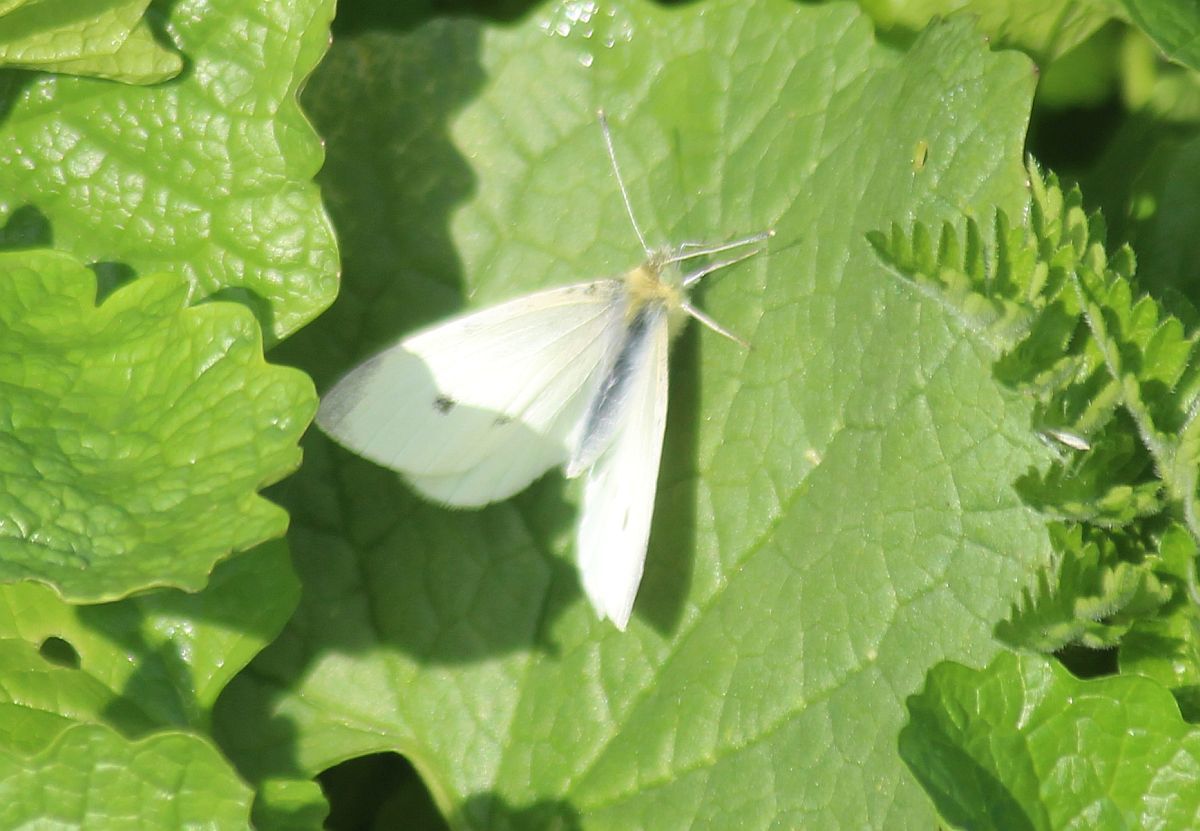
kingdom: Animalia
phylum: Arthropoda
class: Insecta
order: Lepidoptera
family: Pieridae
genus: Pieris
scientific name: Pieris rapae
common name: Small white
